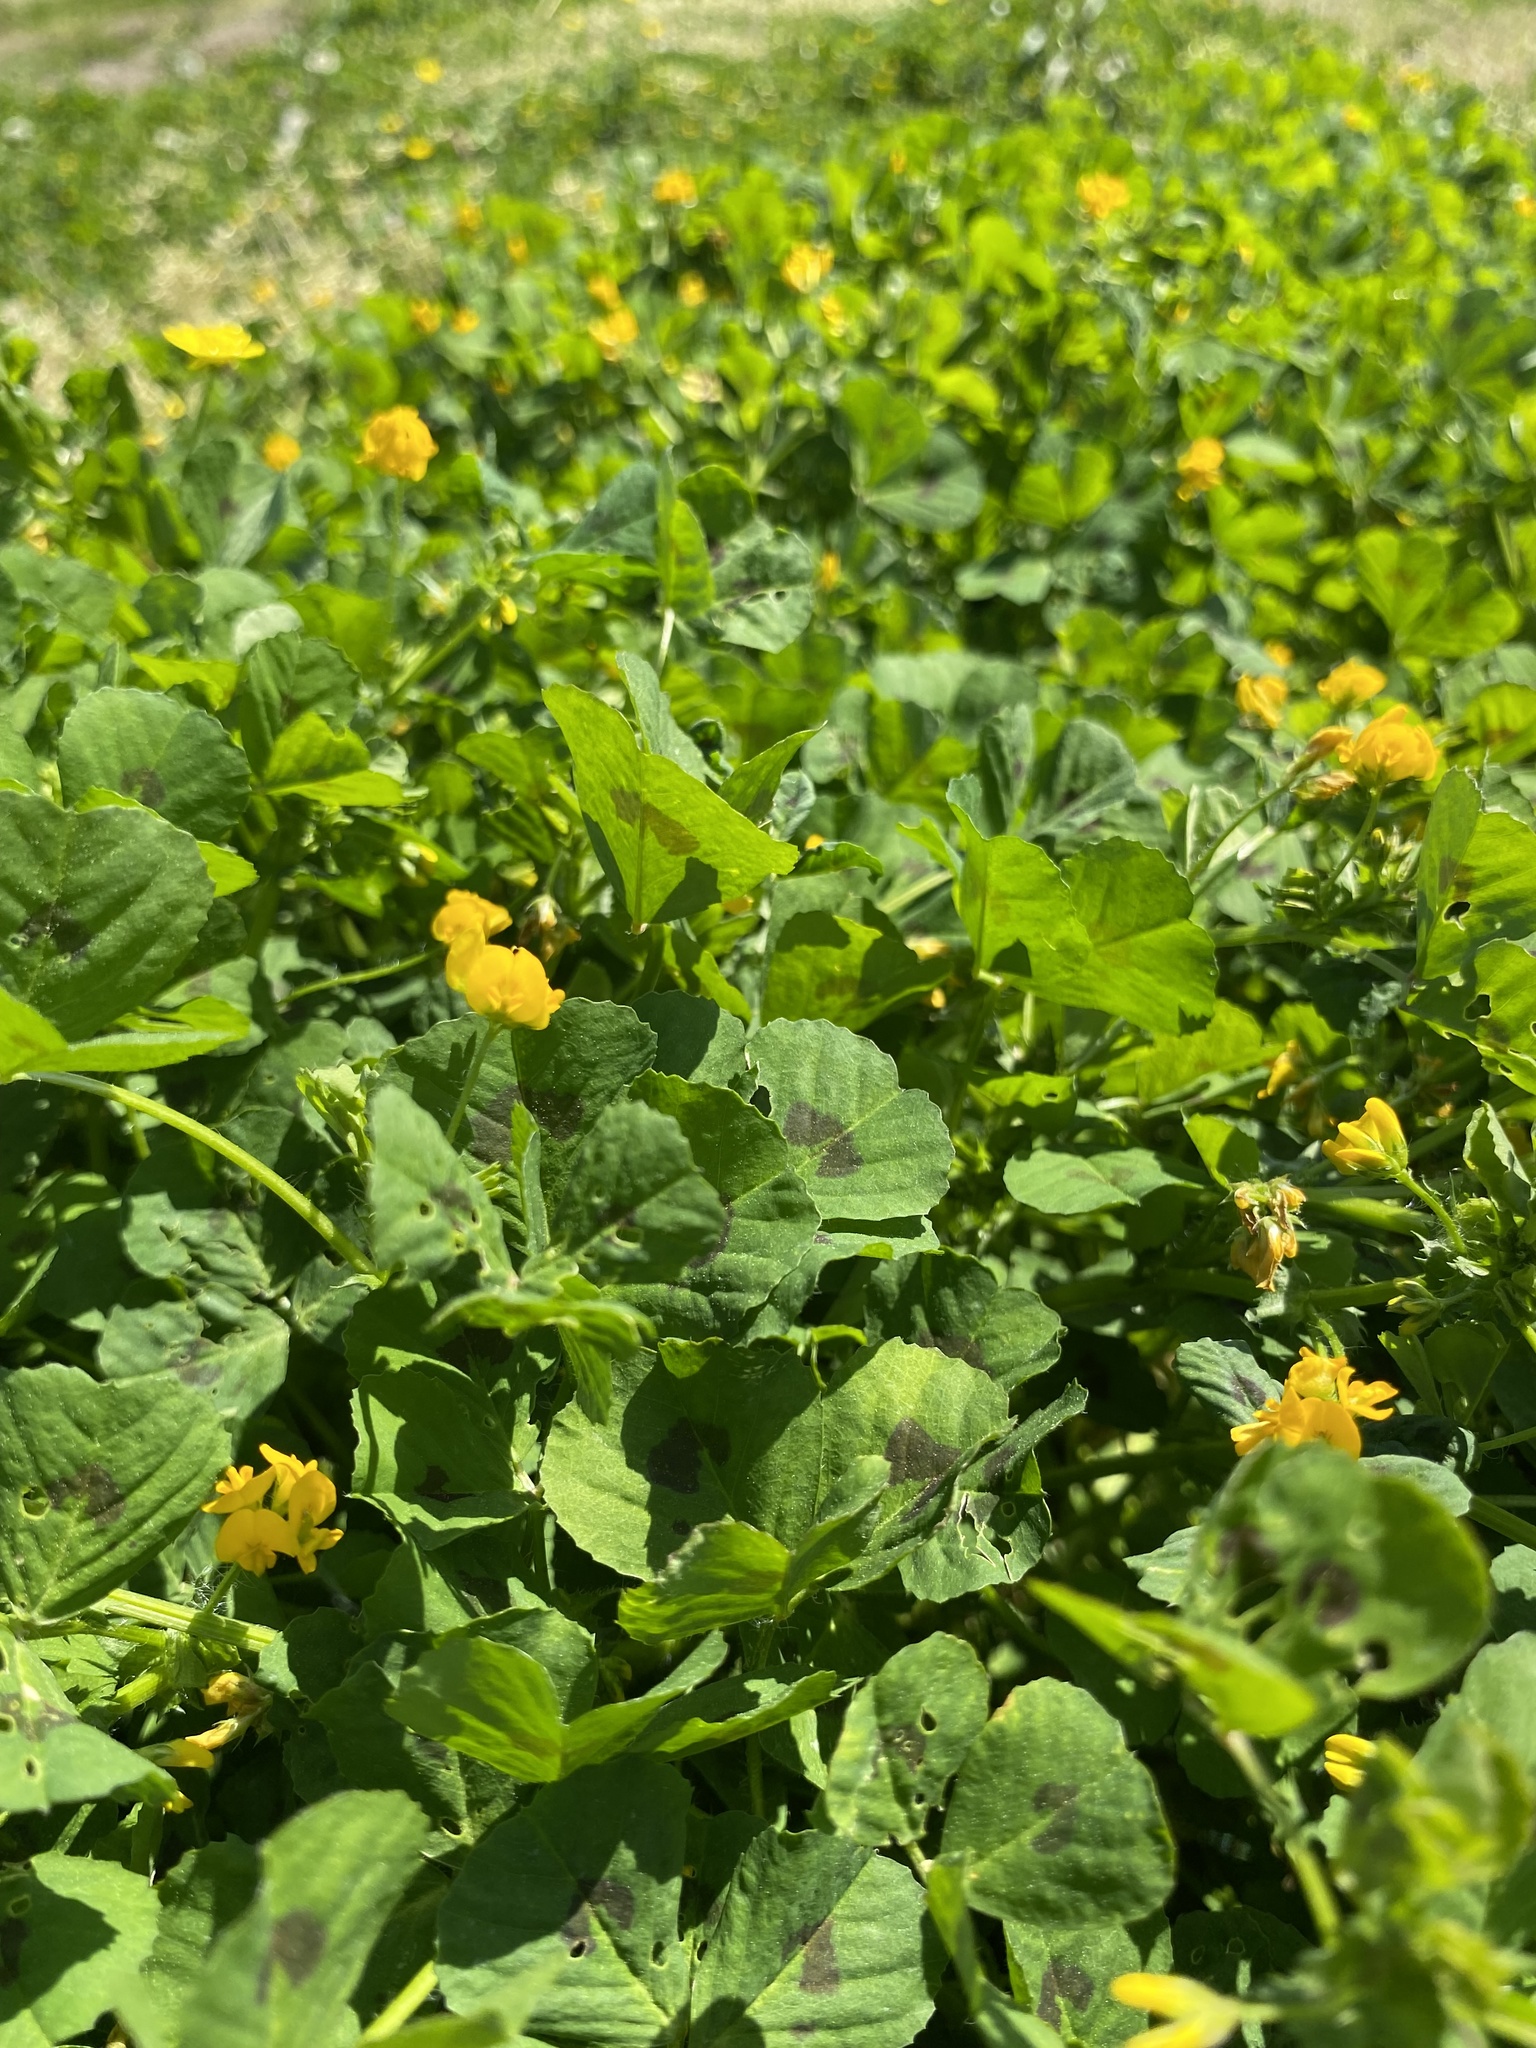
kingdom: Plantae
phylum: Tracheophyta
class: Magnoliopsida
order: Fabales
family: Fabaceae
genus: Medicago
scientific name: Medicago arabica
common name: Spotted medick
